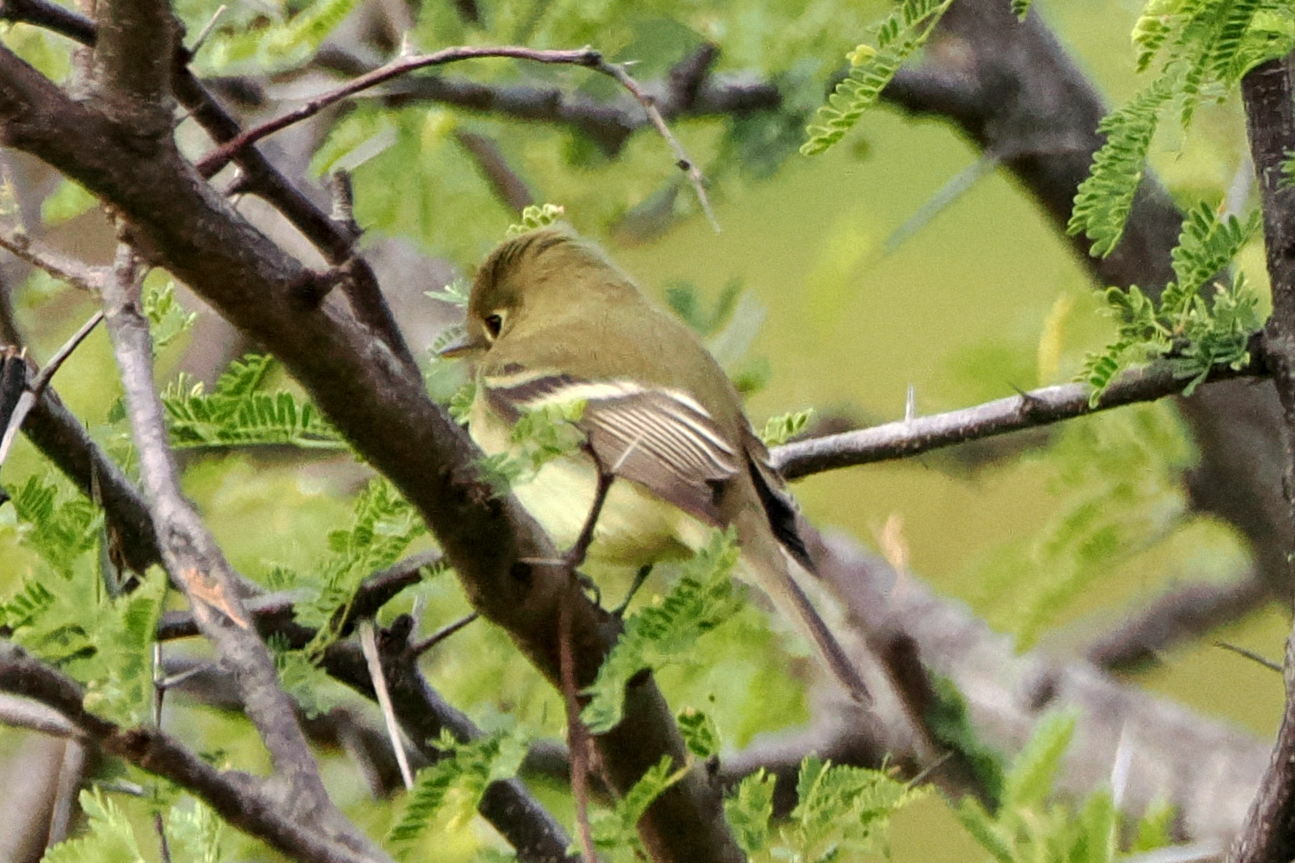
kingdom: Animalia
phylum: Chordata
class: Aves
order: Passeriformes
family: Tyrannidae
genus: Empidonax
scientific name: Empidonax difficilis
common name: Pacific-slope flycatcher
